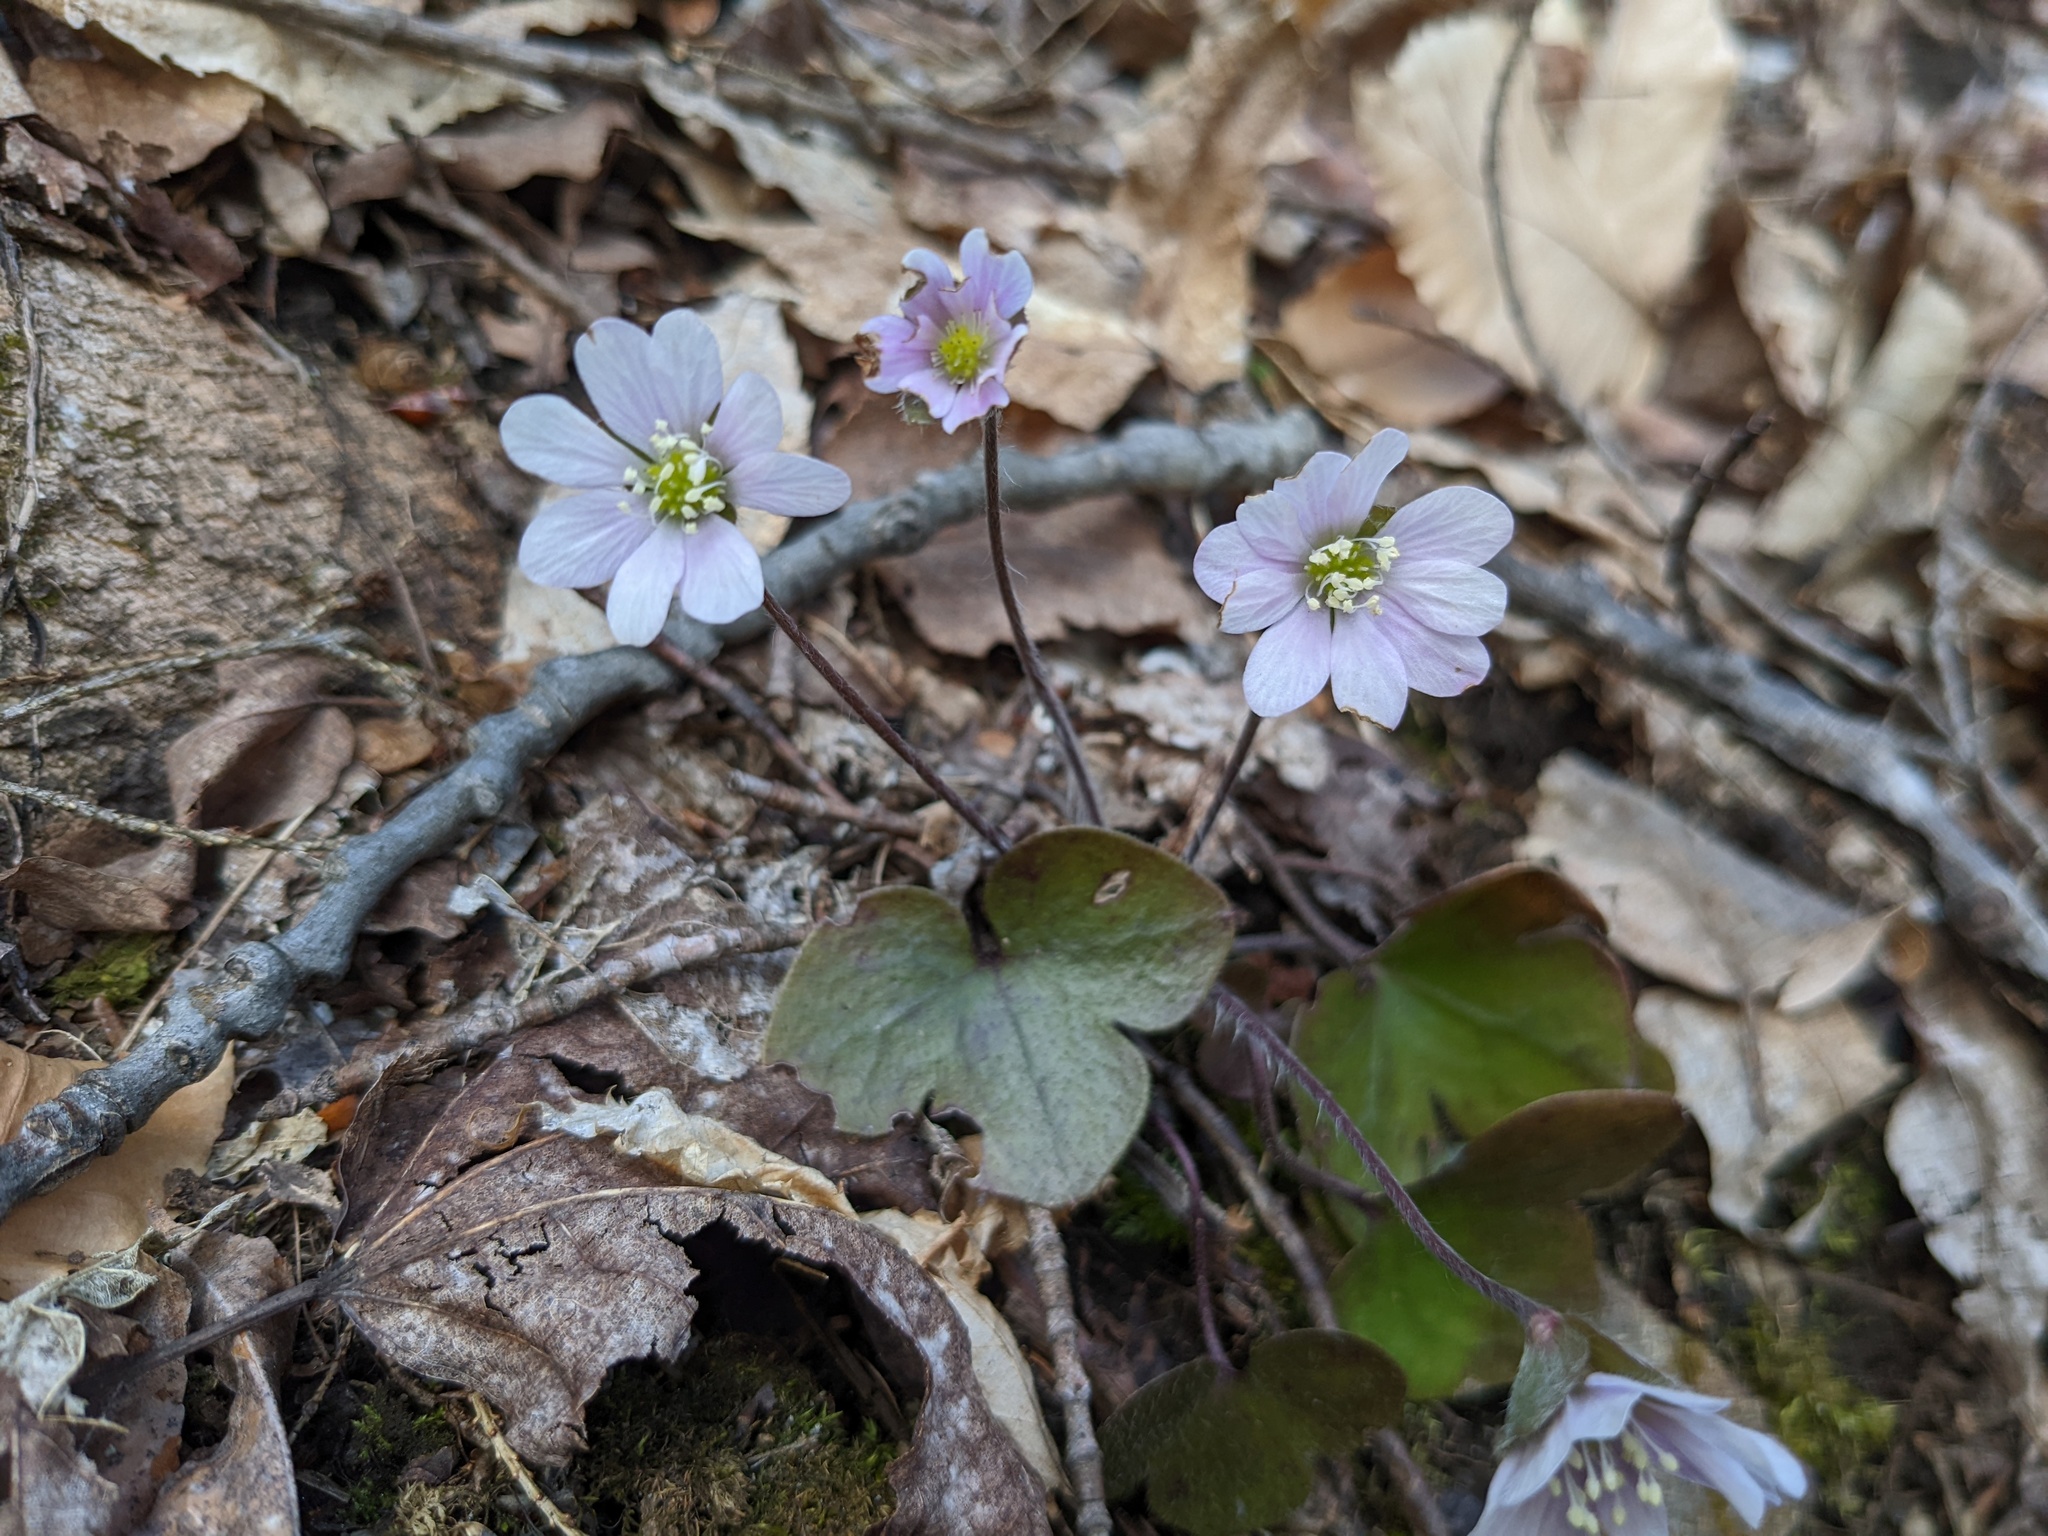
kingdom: Plantae
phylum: Tracheophyta
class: Magnoliopsida
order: Ranunculales
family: Ranunculaceae
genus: Hepatica
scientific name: Hepatica americana
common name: American hepatica
